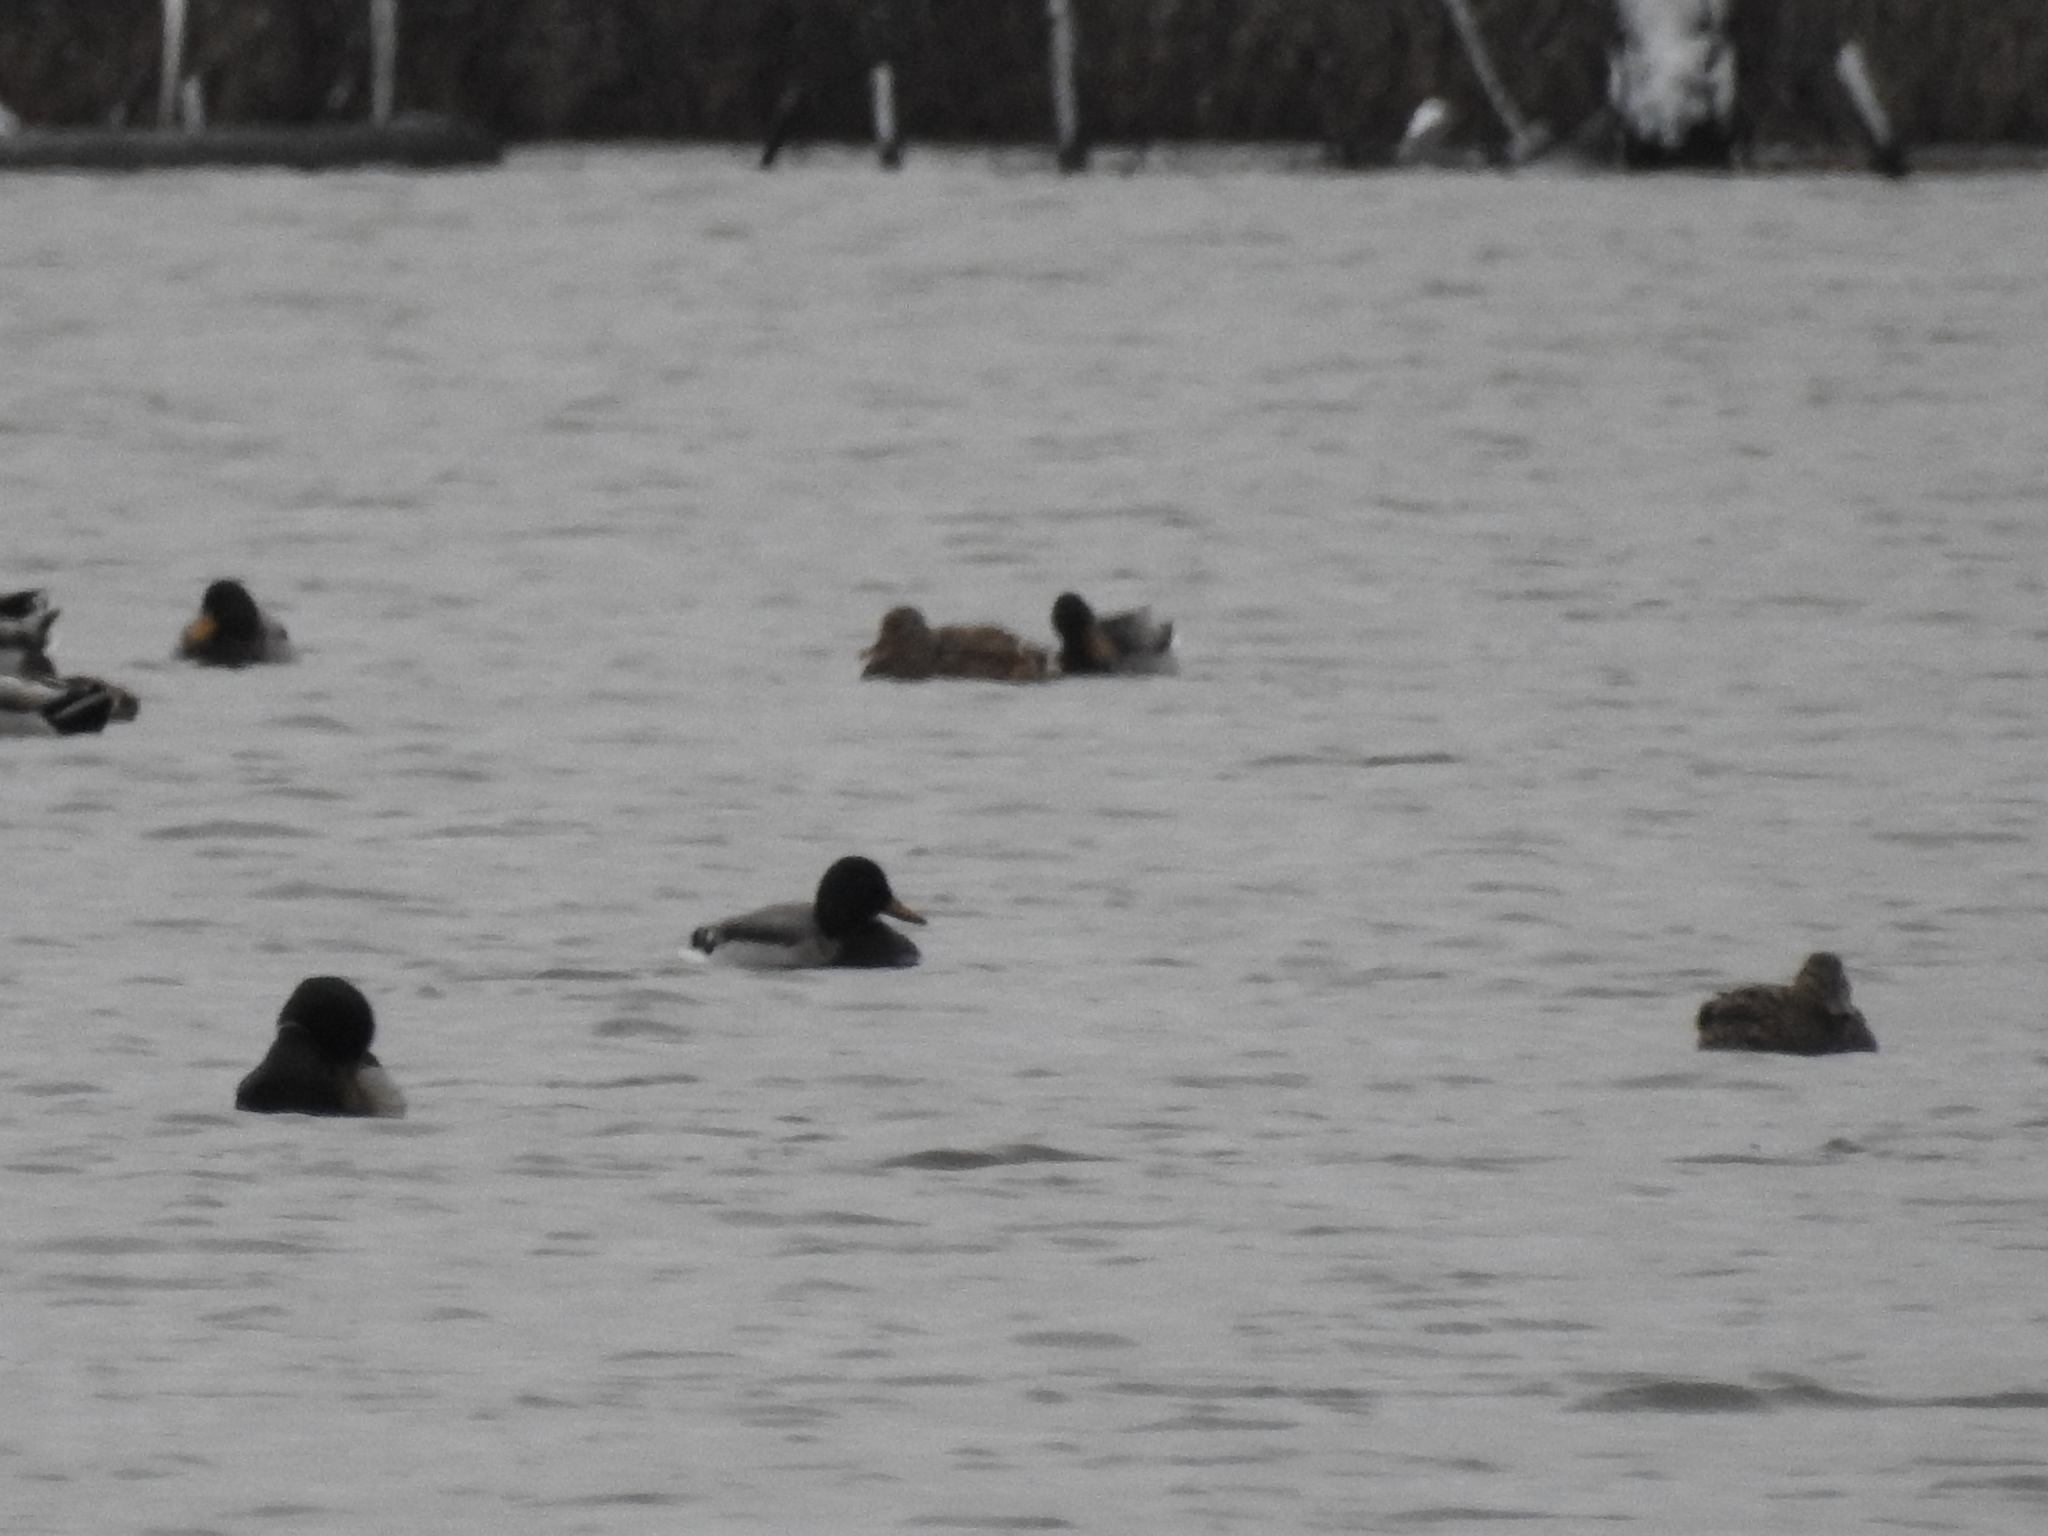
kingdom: Animalia
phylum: Chordata
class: Aves
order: Anseriformes
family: Anatidae
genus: Anas
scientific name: Anas platyrhynchos
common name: Mallard
